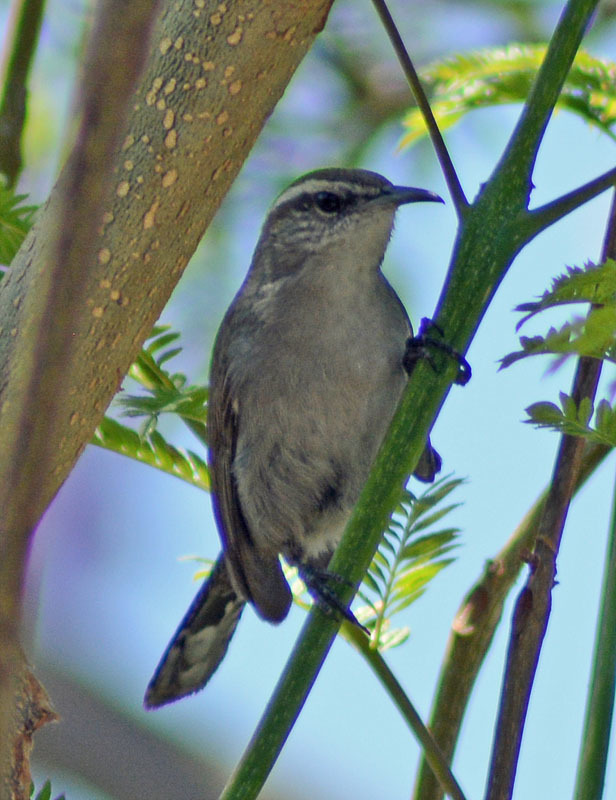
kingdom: Animalia
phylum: Chordata
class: Aves
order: Passeriformes
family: Troglodytidae
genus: Thryomanes
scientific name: Thryomanes bewickii
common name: Bewick's wren
